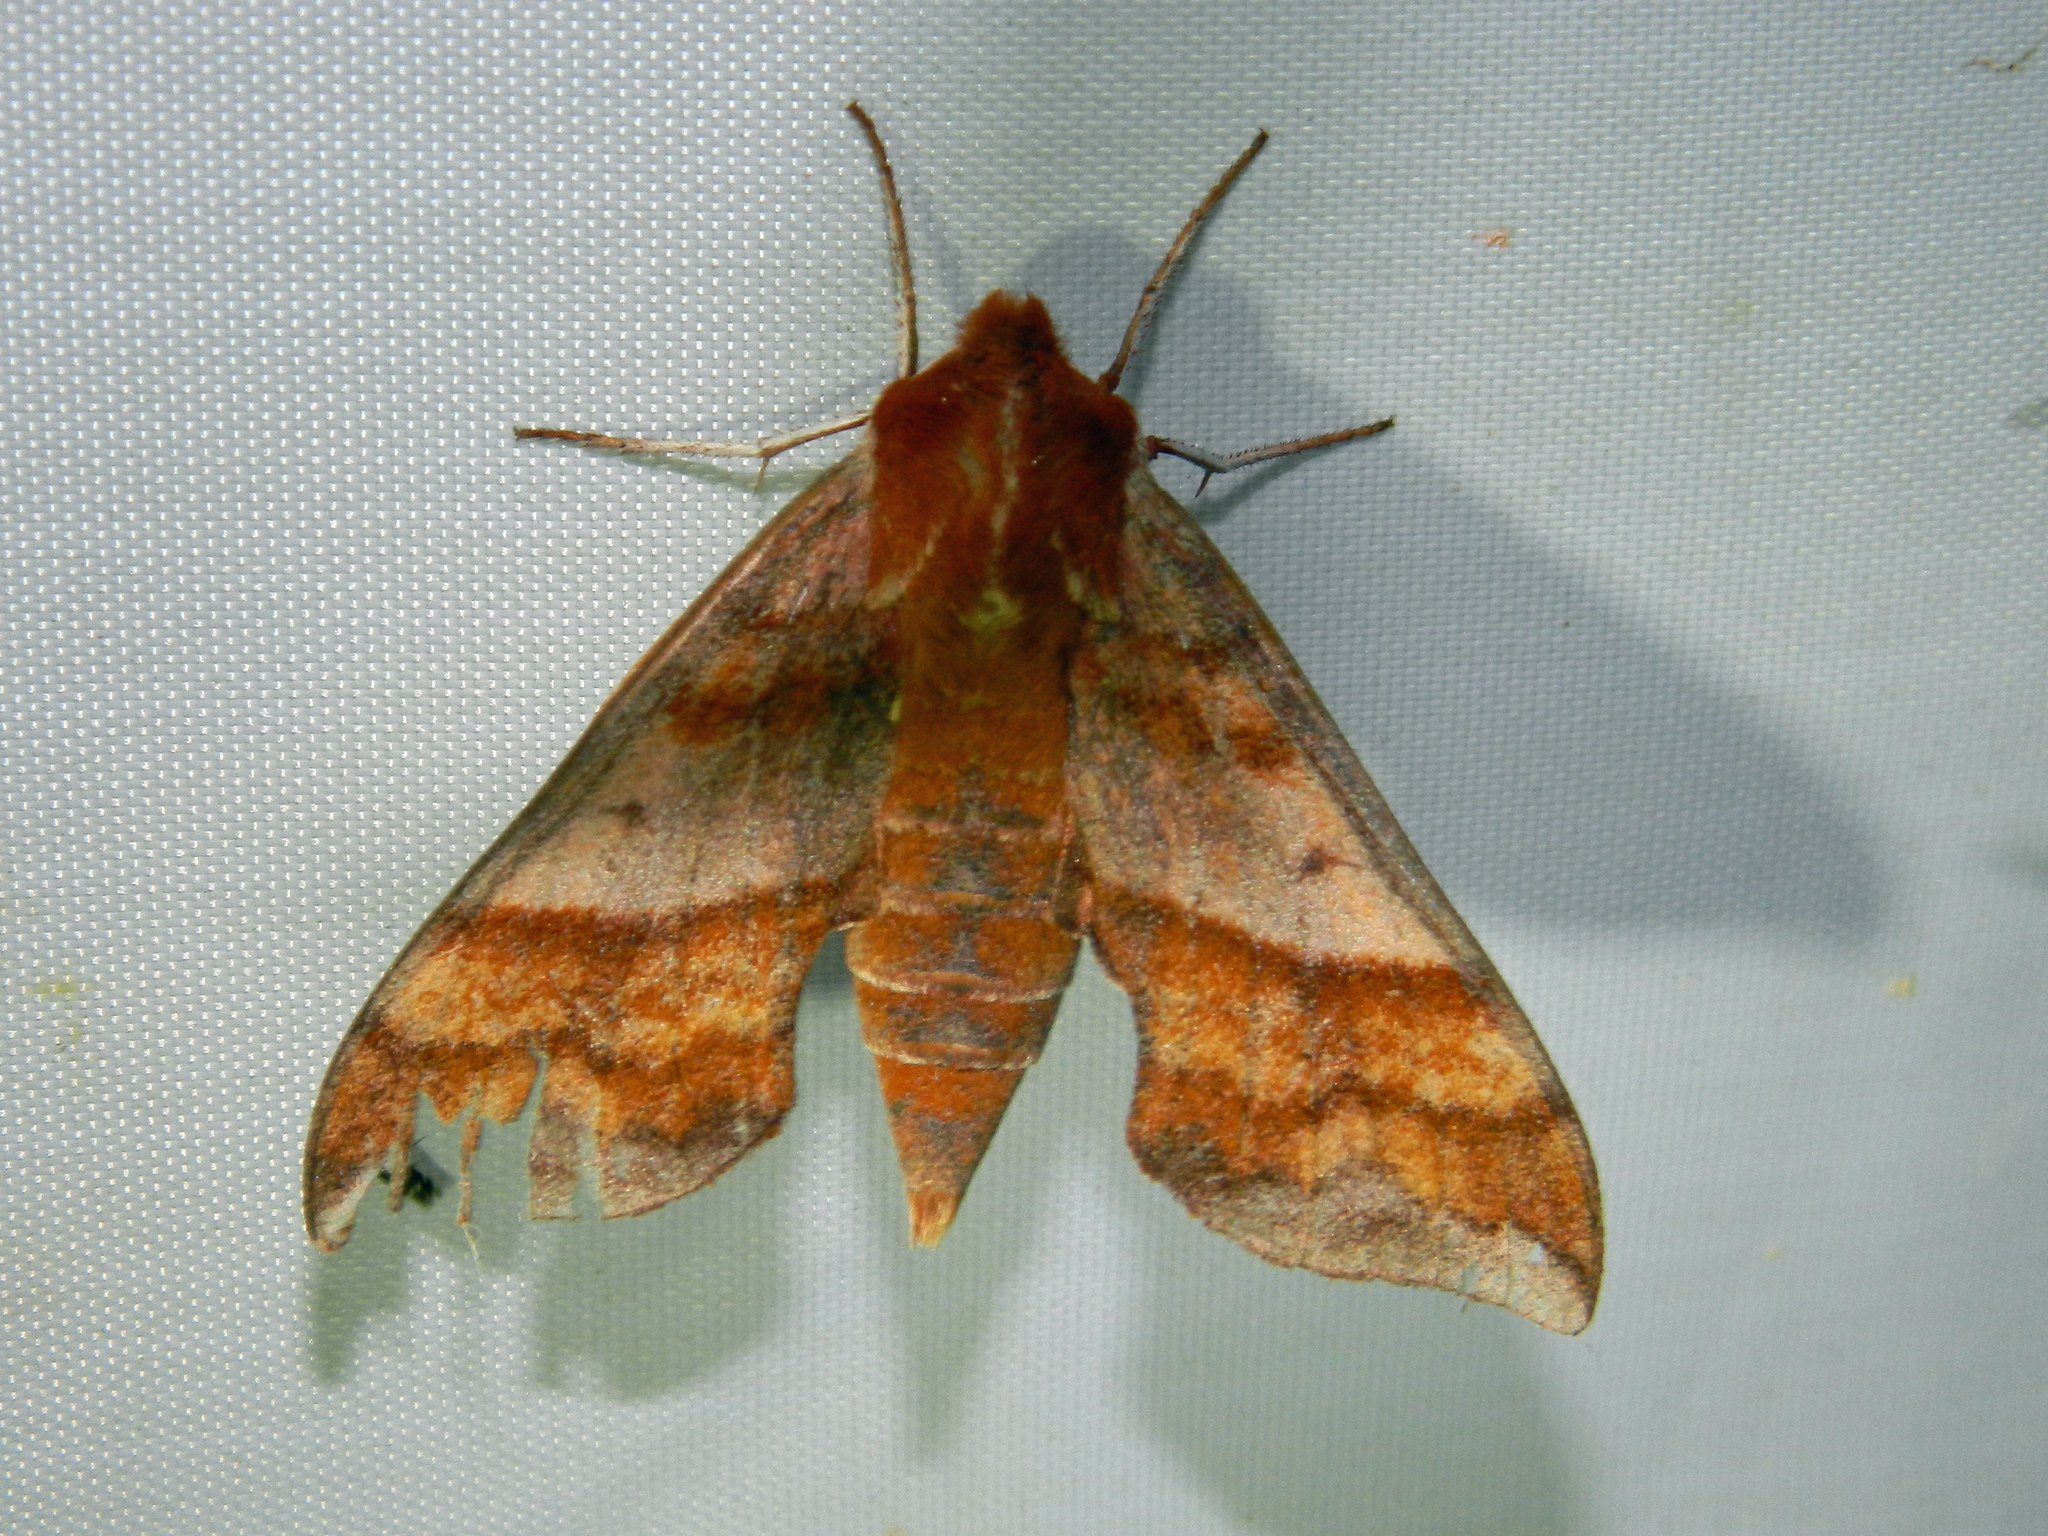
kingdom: Animalia
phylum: Arthropoda
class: Insecta
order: Lepidoptera
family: Sphingidae
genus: Darapsa
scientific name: Darapsa choerilus
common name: Azalea sphinx
